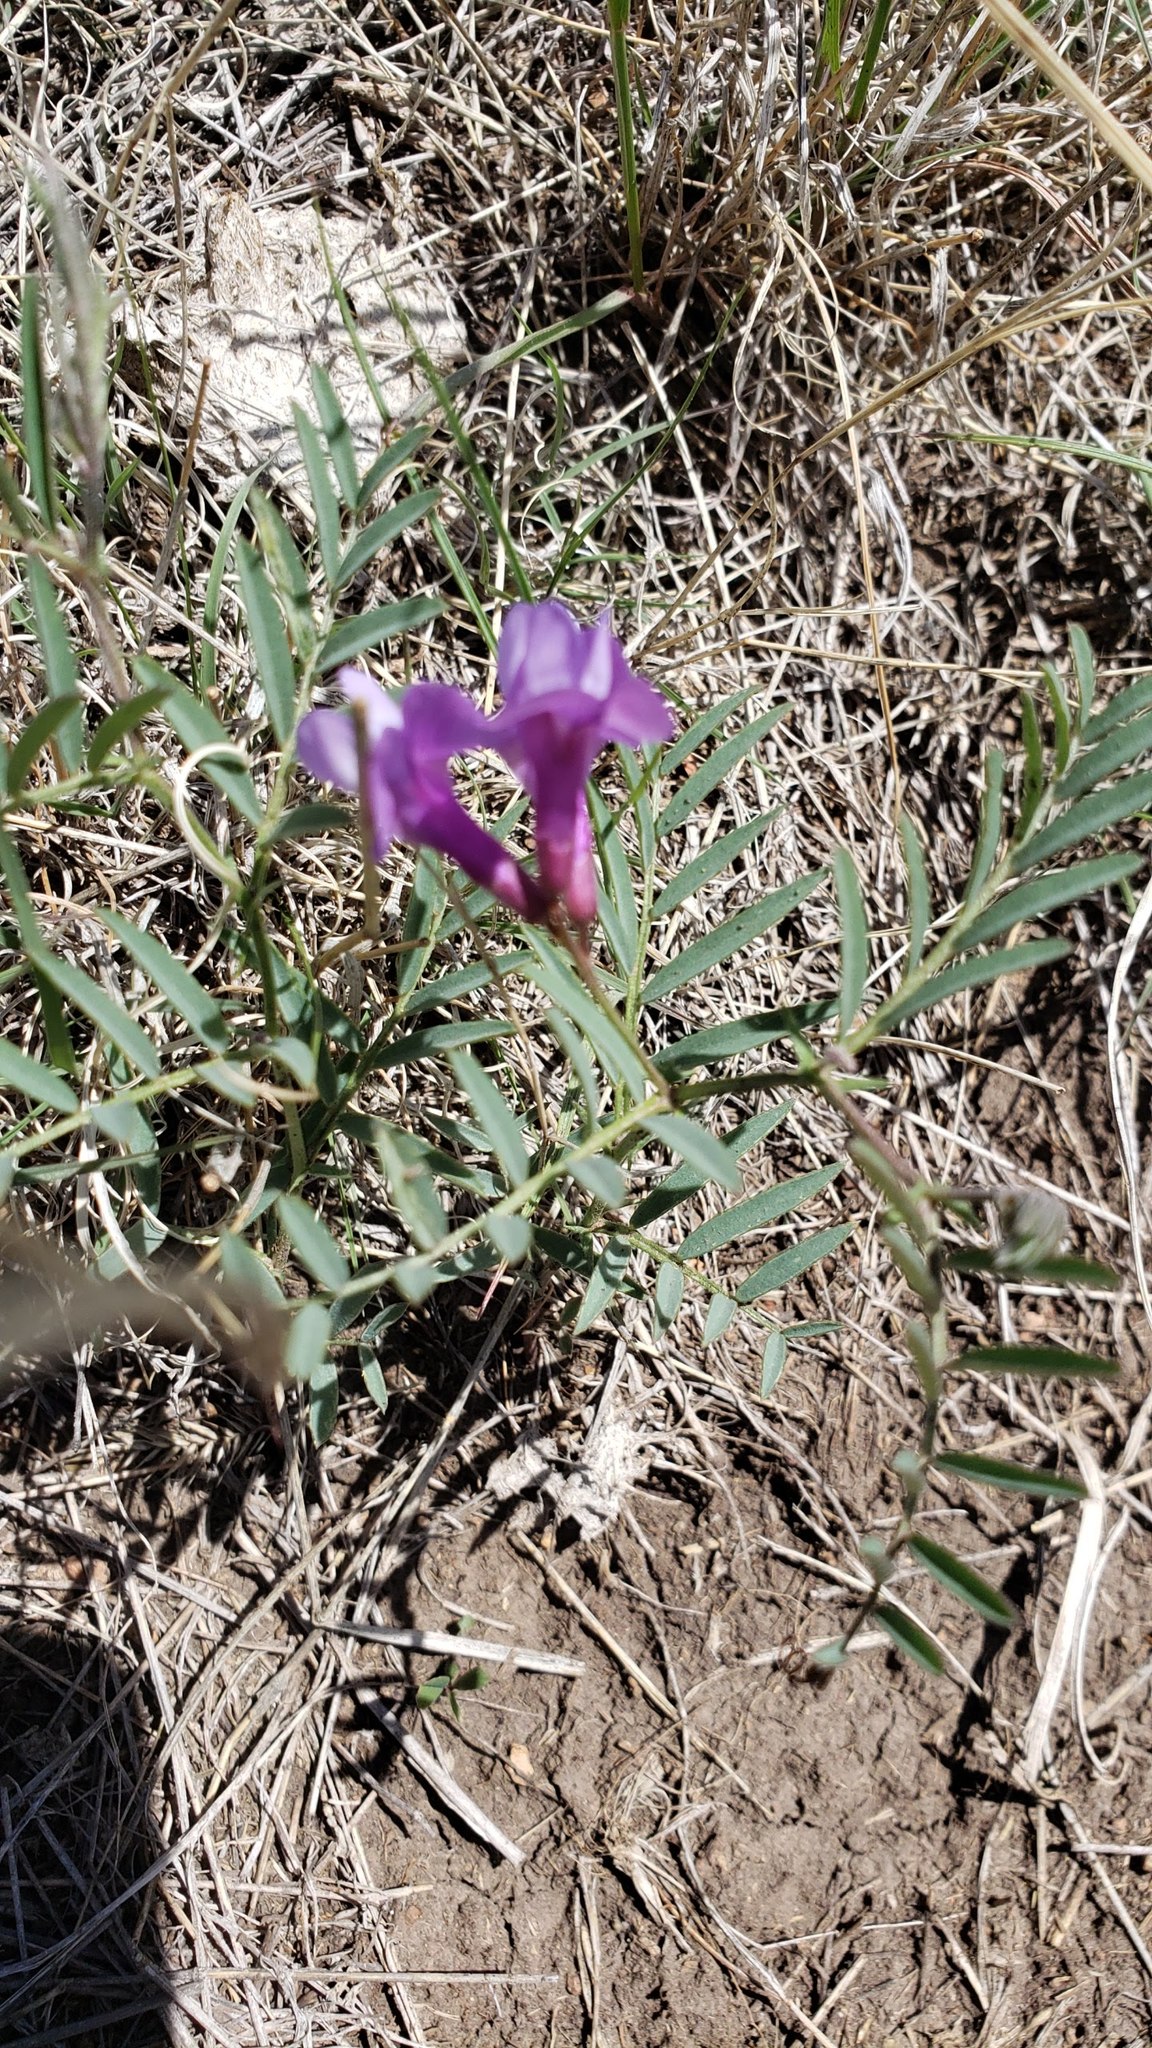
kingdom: Plantae
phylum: Tracheophyta
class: Magnoliopsida
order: Fabales
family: Fabaceae
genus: Vicia
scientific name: Vicia americana
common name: American vetch
